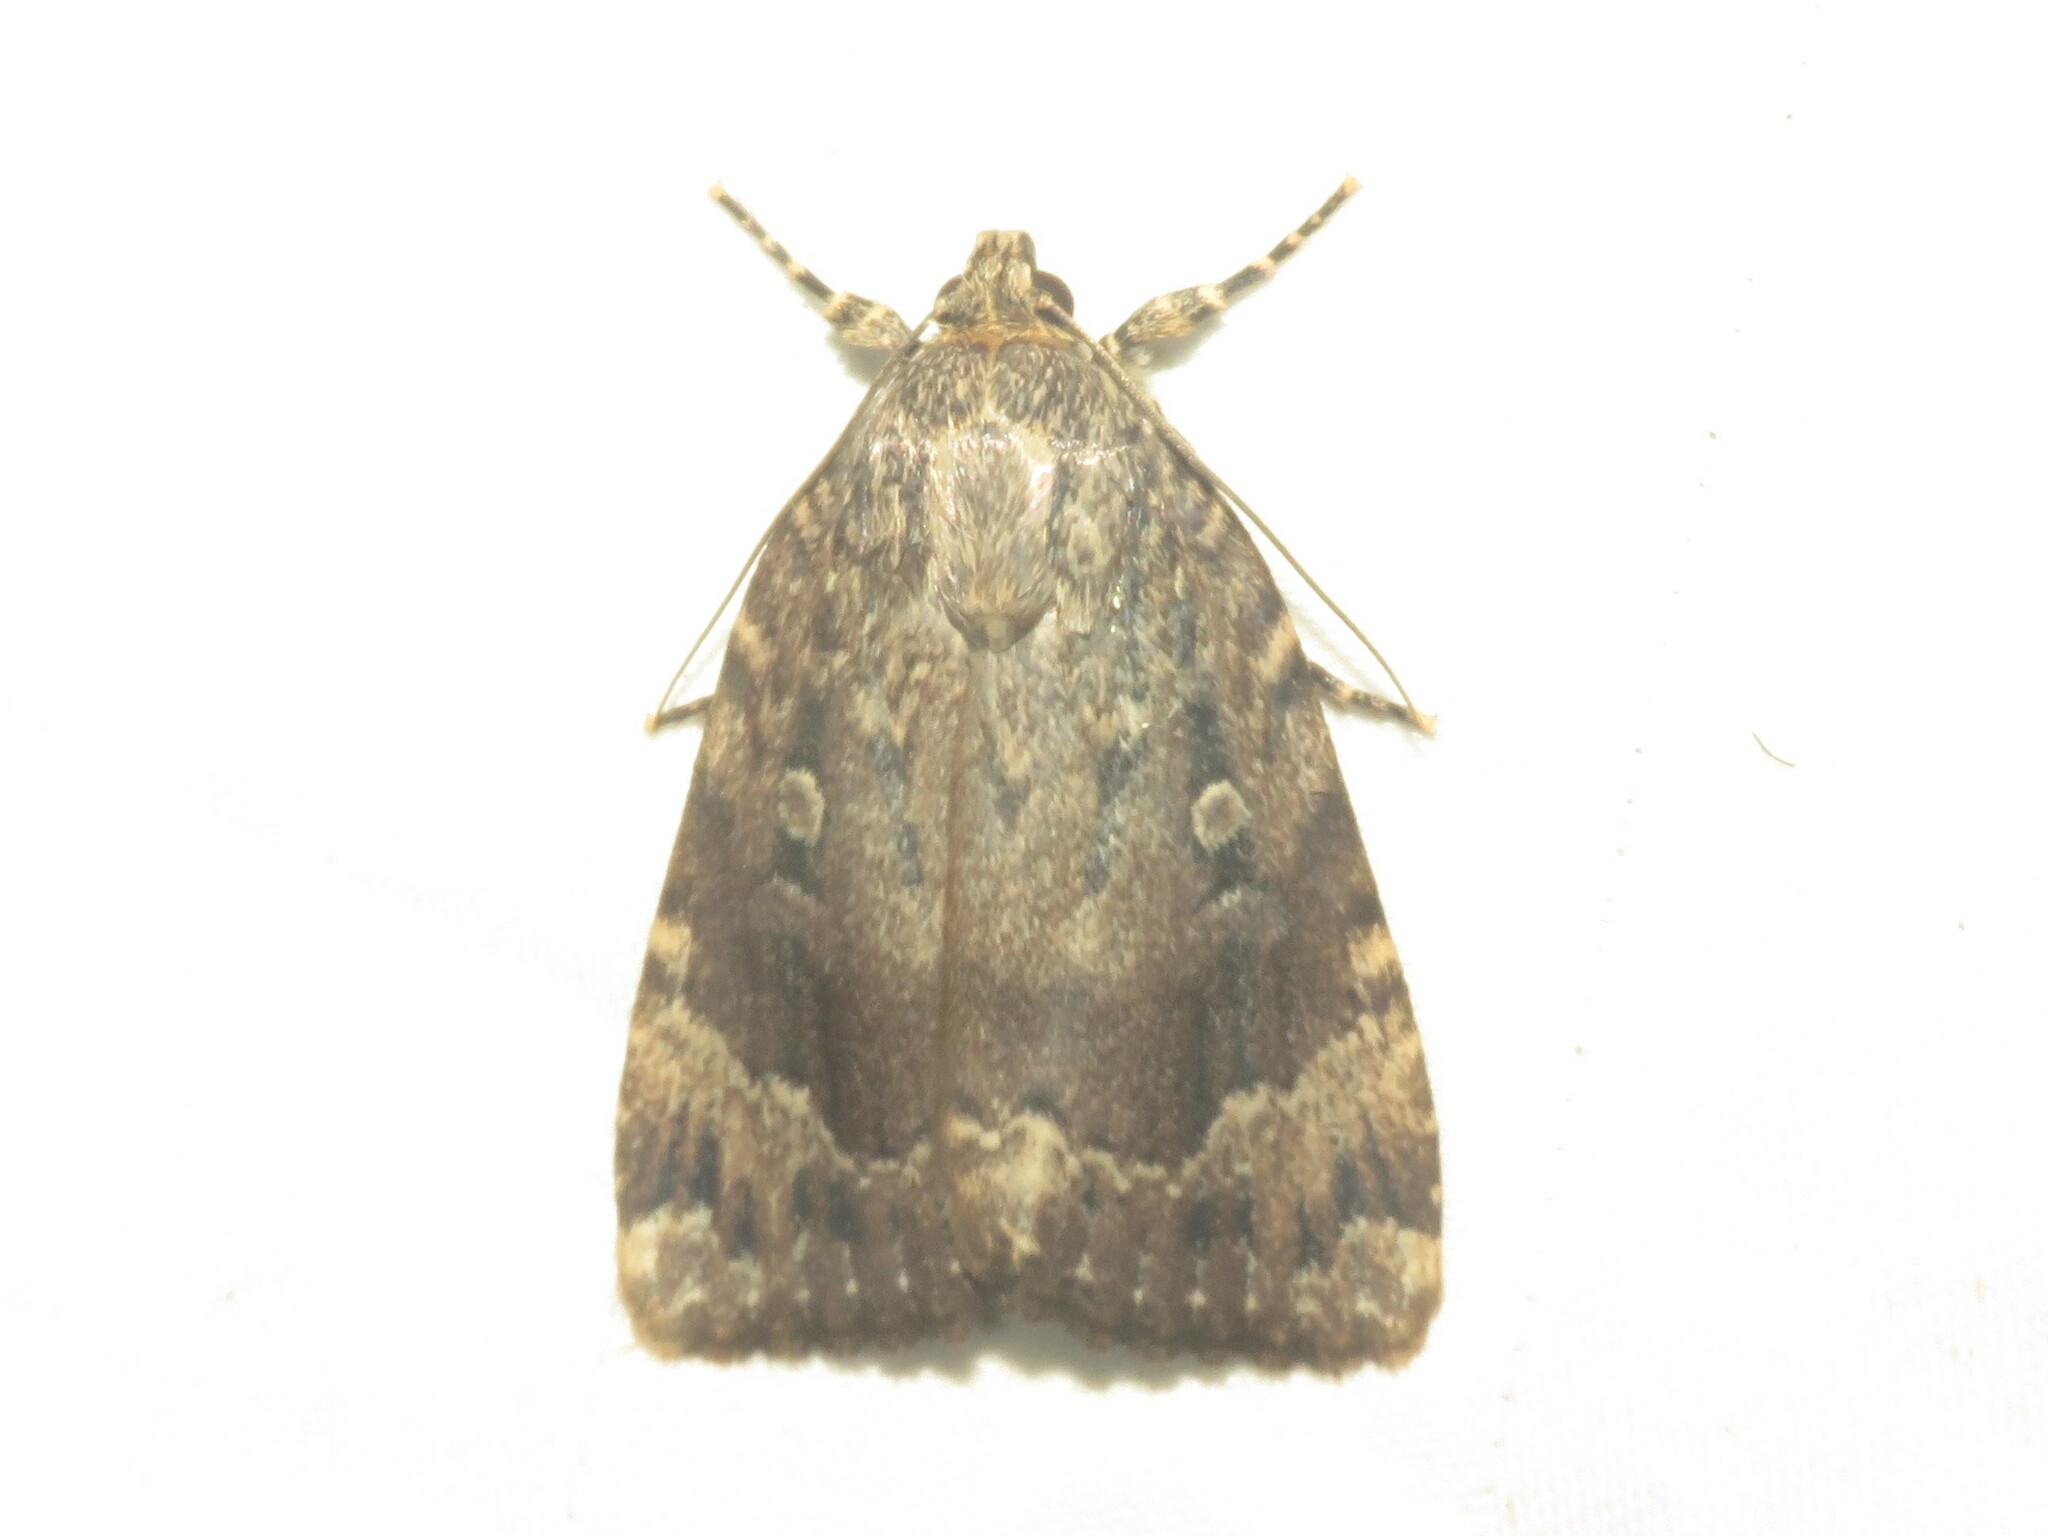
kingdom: Animalia
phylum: Arthropoda
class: Insecta
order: Lepidoptera
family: Noctuidae
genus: Amphipyra
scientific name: Amphipyra pyramidoides
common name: American copper underwing
